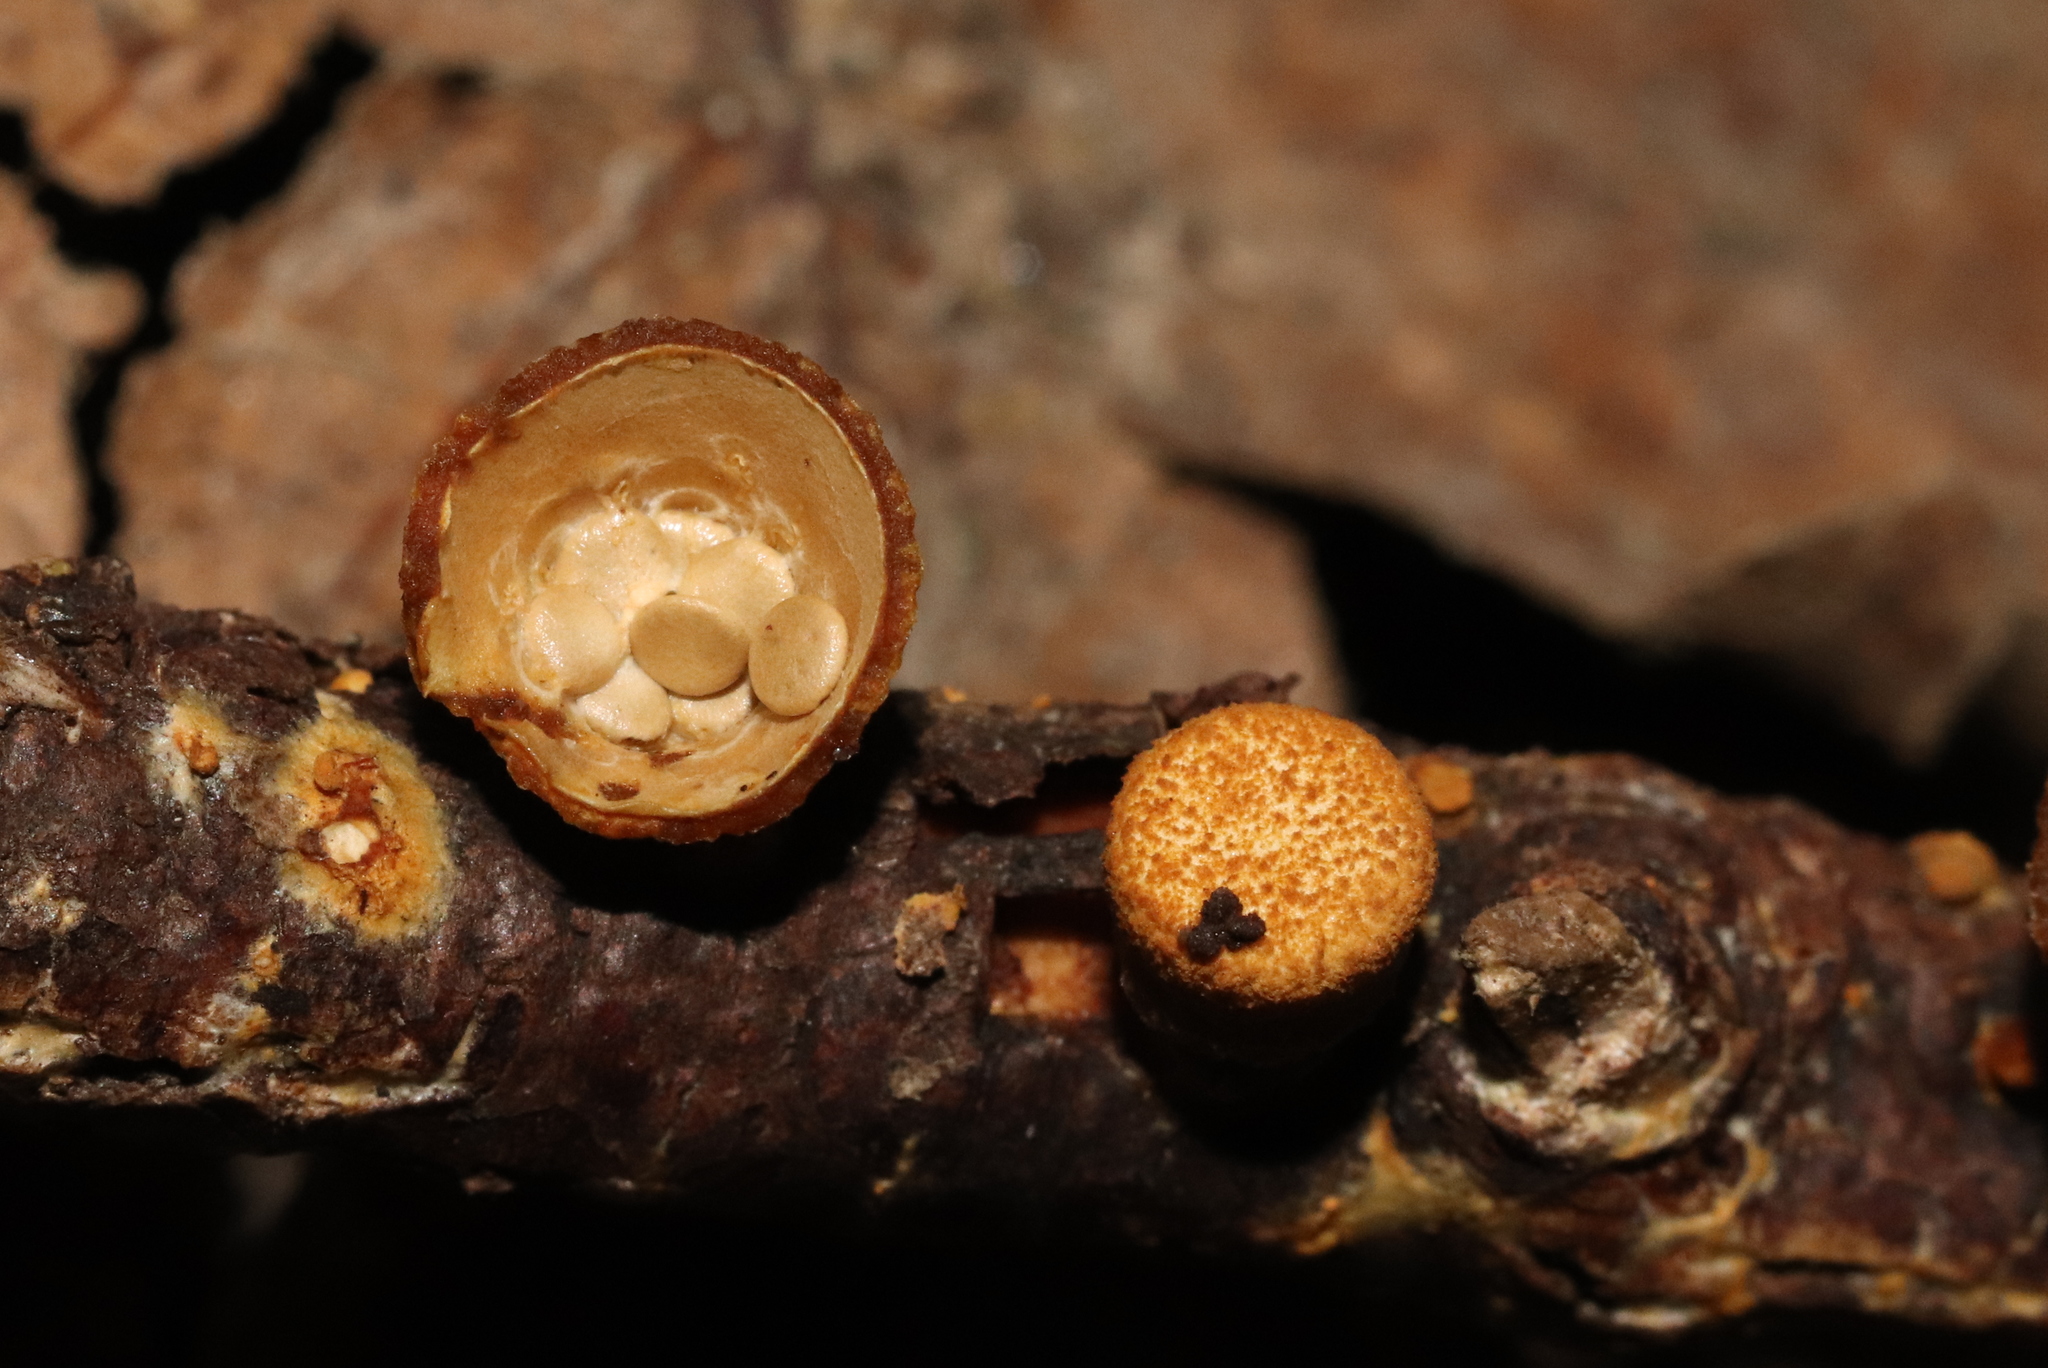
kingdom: Fungi
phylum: Basidiomycota
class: Agaricomycetes
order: Agaricales
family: Nidulariaceae
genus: Crucibulum
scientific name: Crucibulum laeve
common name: Common bird's nest
